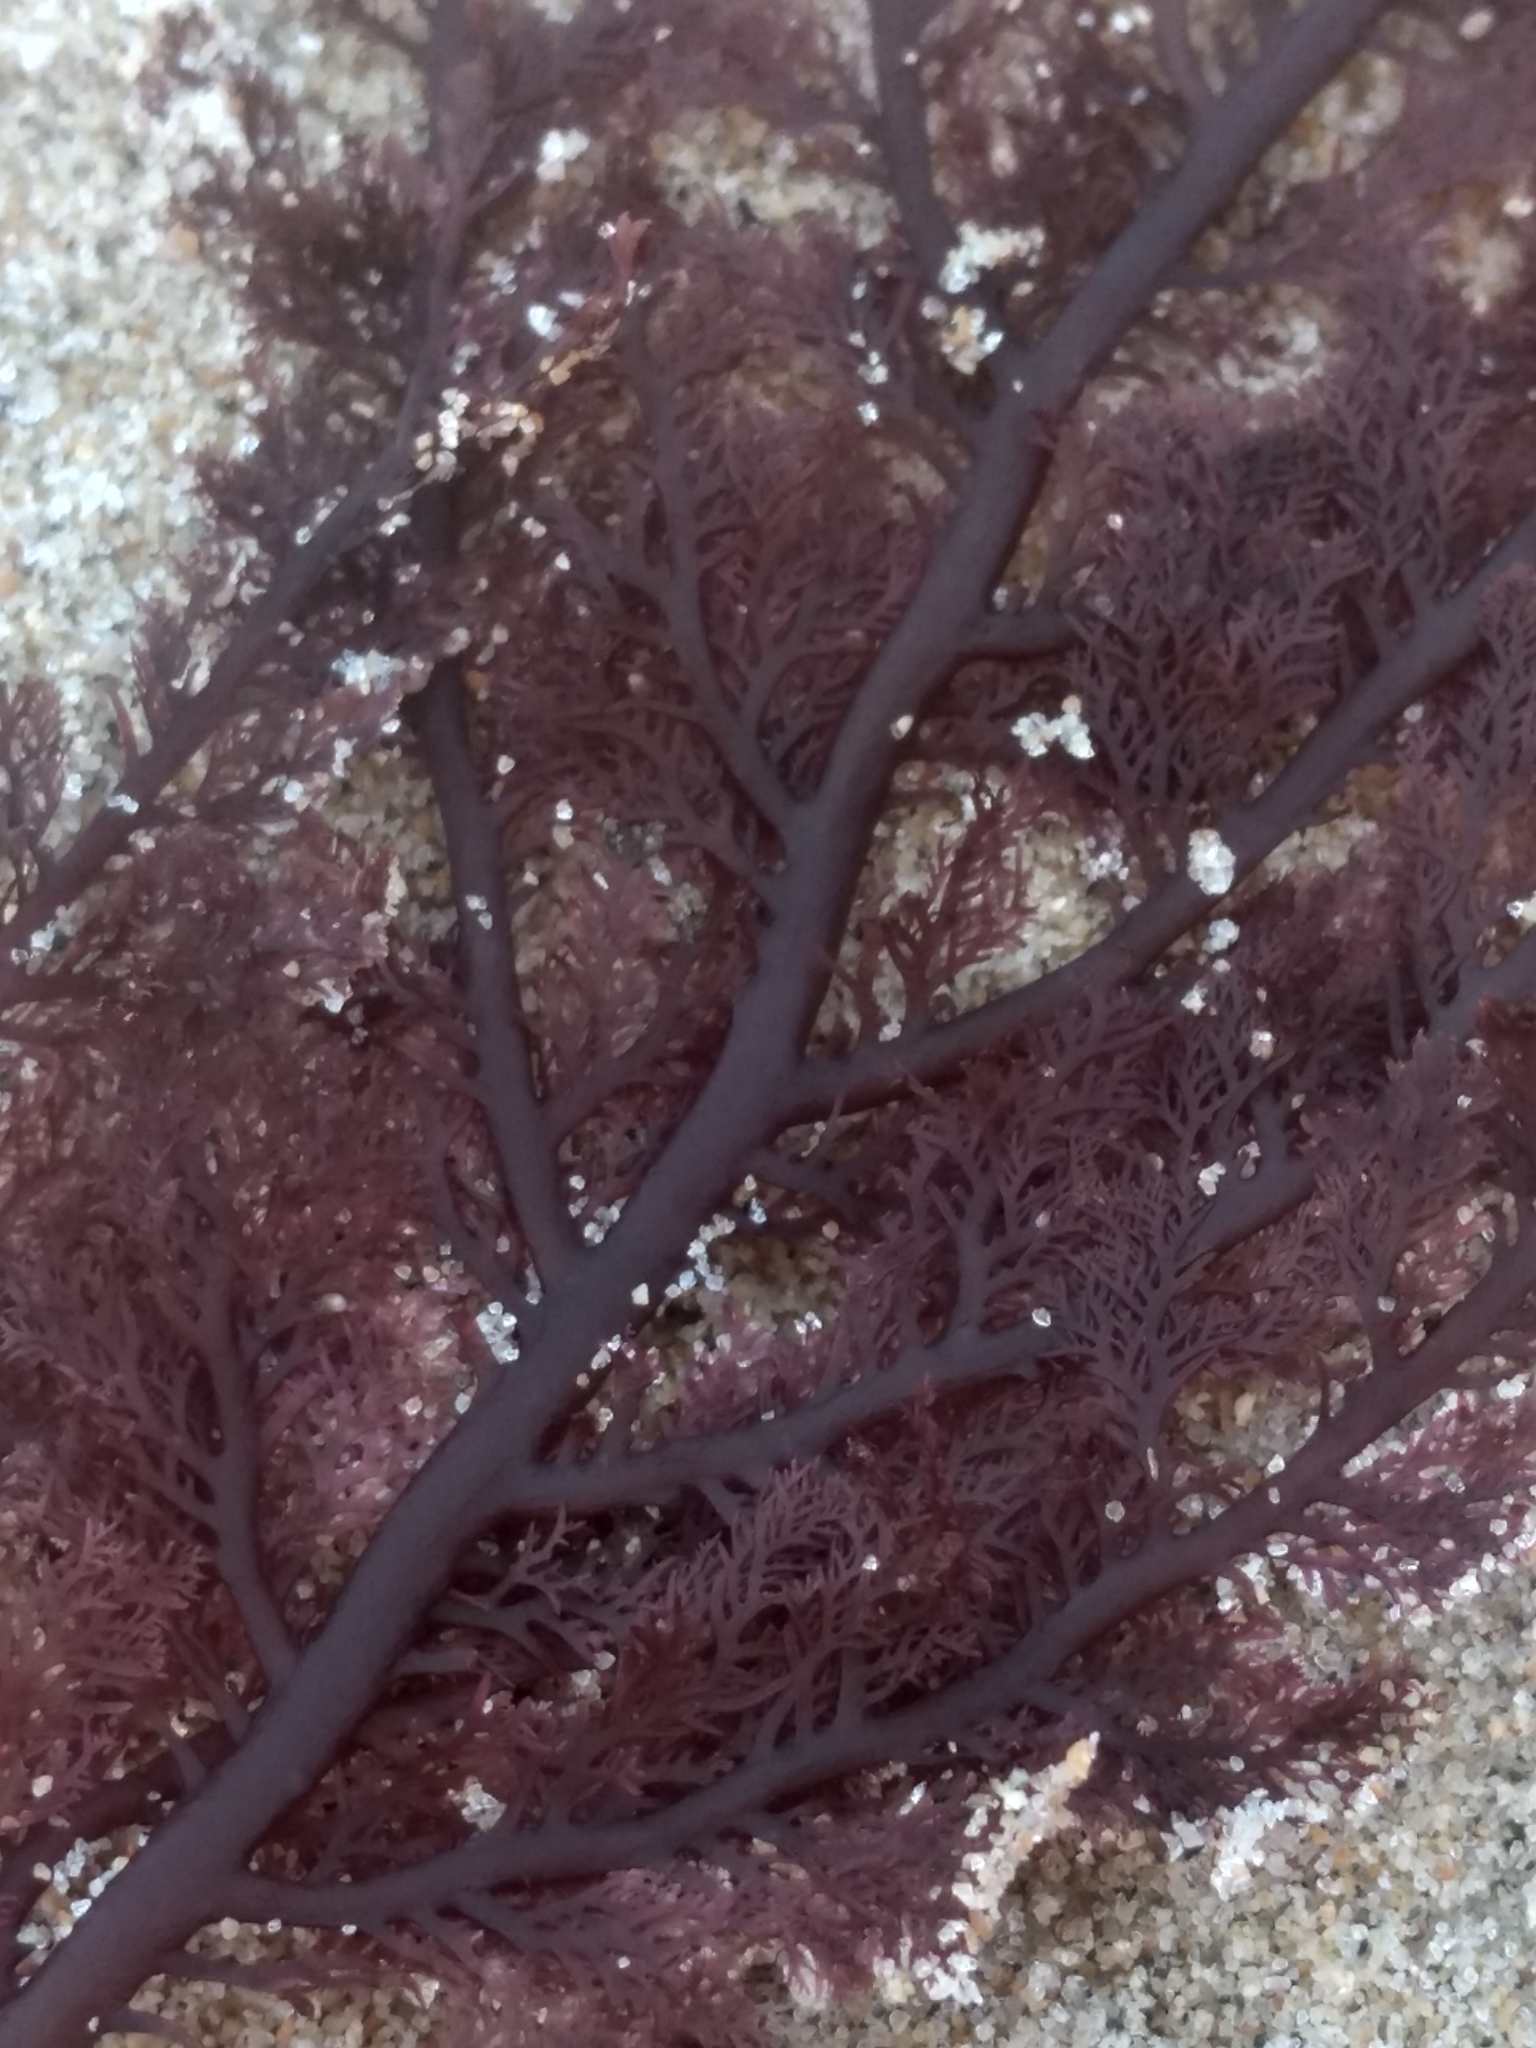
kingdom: Plantae
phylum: Rhodophyta
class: Florideophyceae
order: Plocamiales
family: Plocamiaceae
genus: Plocamium
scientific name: Plocamium cartilagineum
